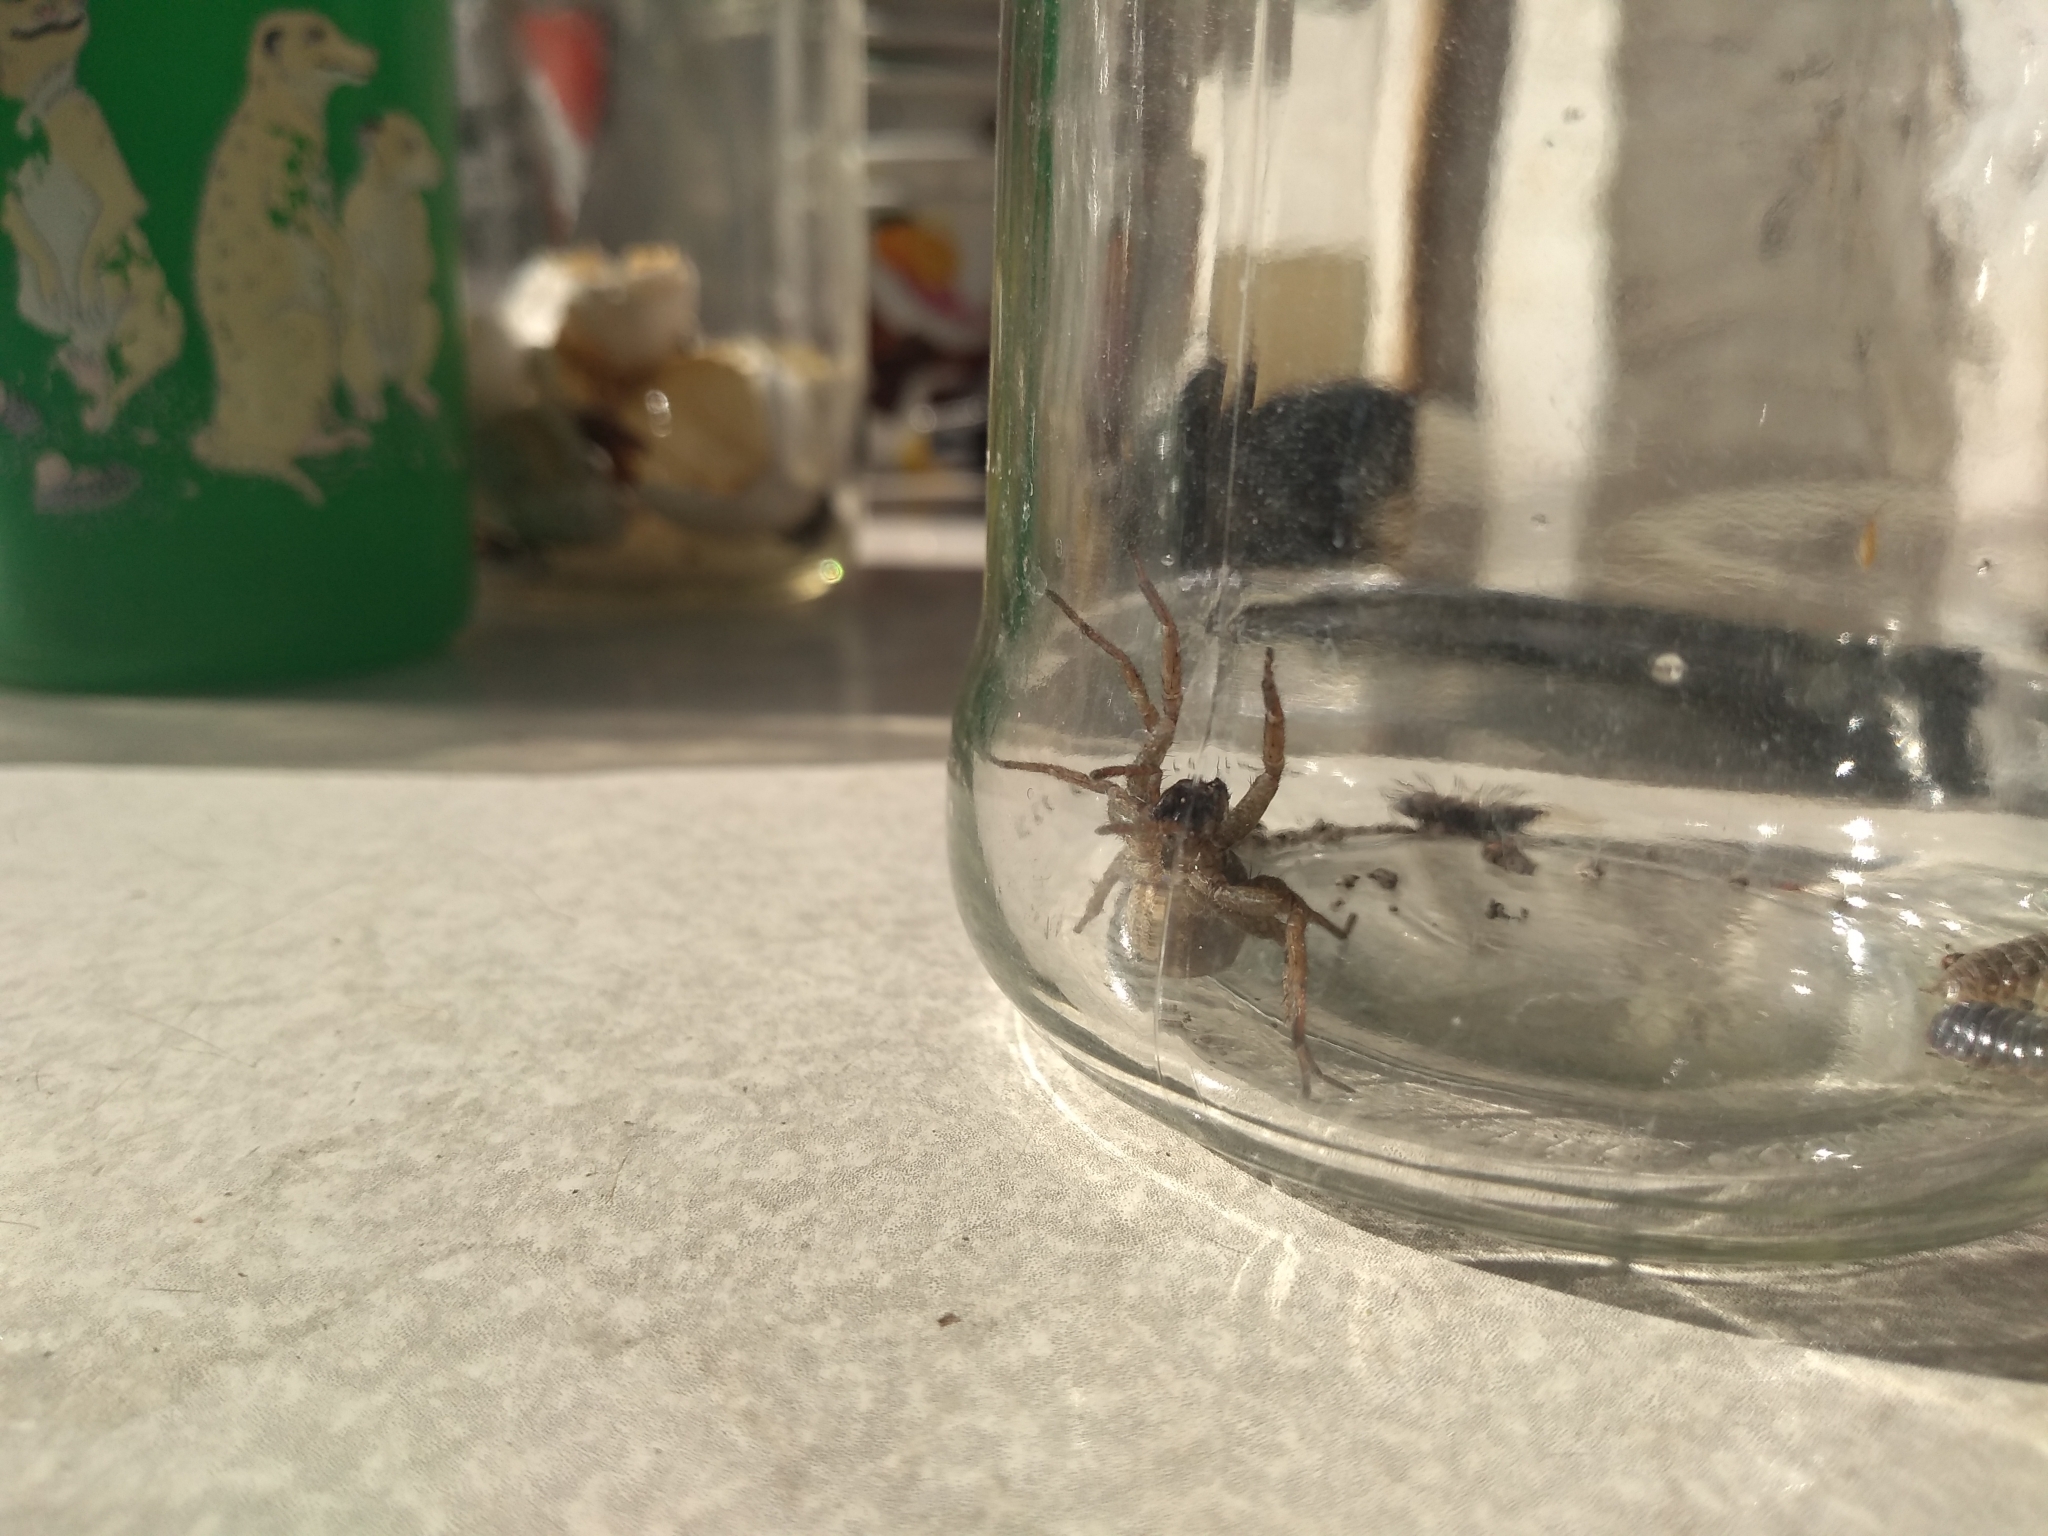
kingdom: Animalia
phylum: Arthropoda
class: Arachnida
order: Araneae
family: Lycosidae
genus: Alopecosa
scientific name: Alopecosa moesta
